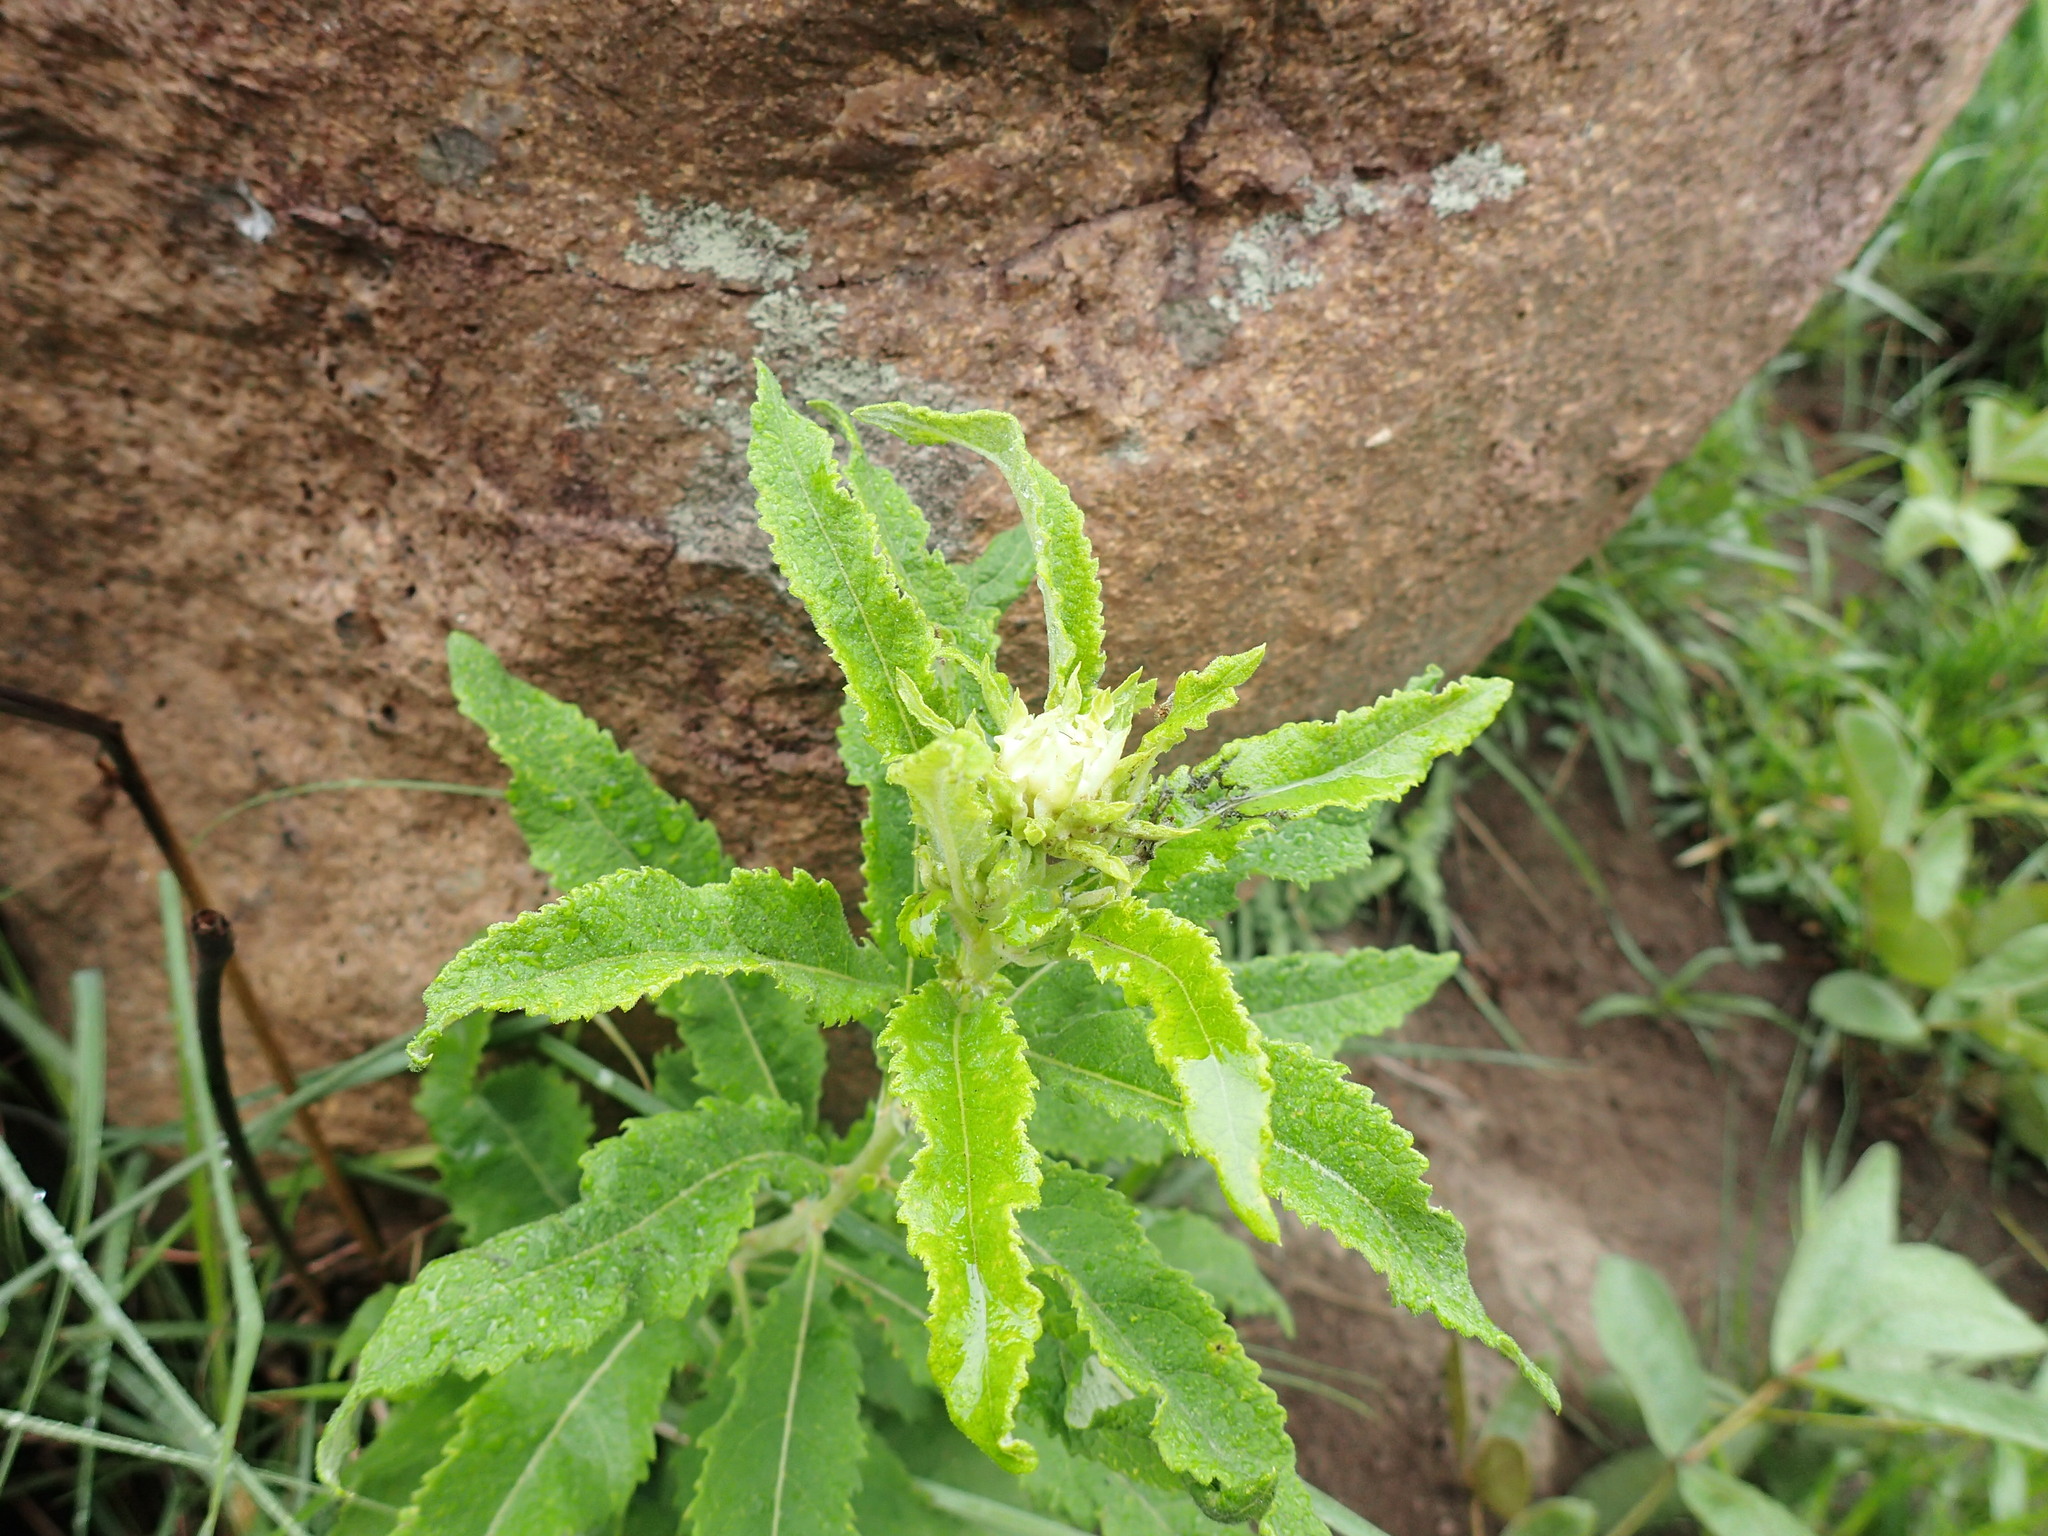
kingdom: Plantae
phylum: Tracheophyta
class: Magnoliopsida
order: Asterales
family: Asteraceae
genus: Baccharoides
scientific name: Baccharoides adoensis
